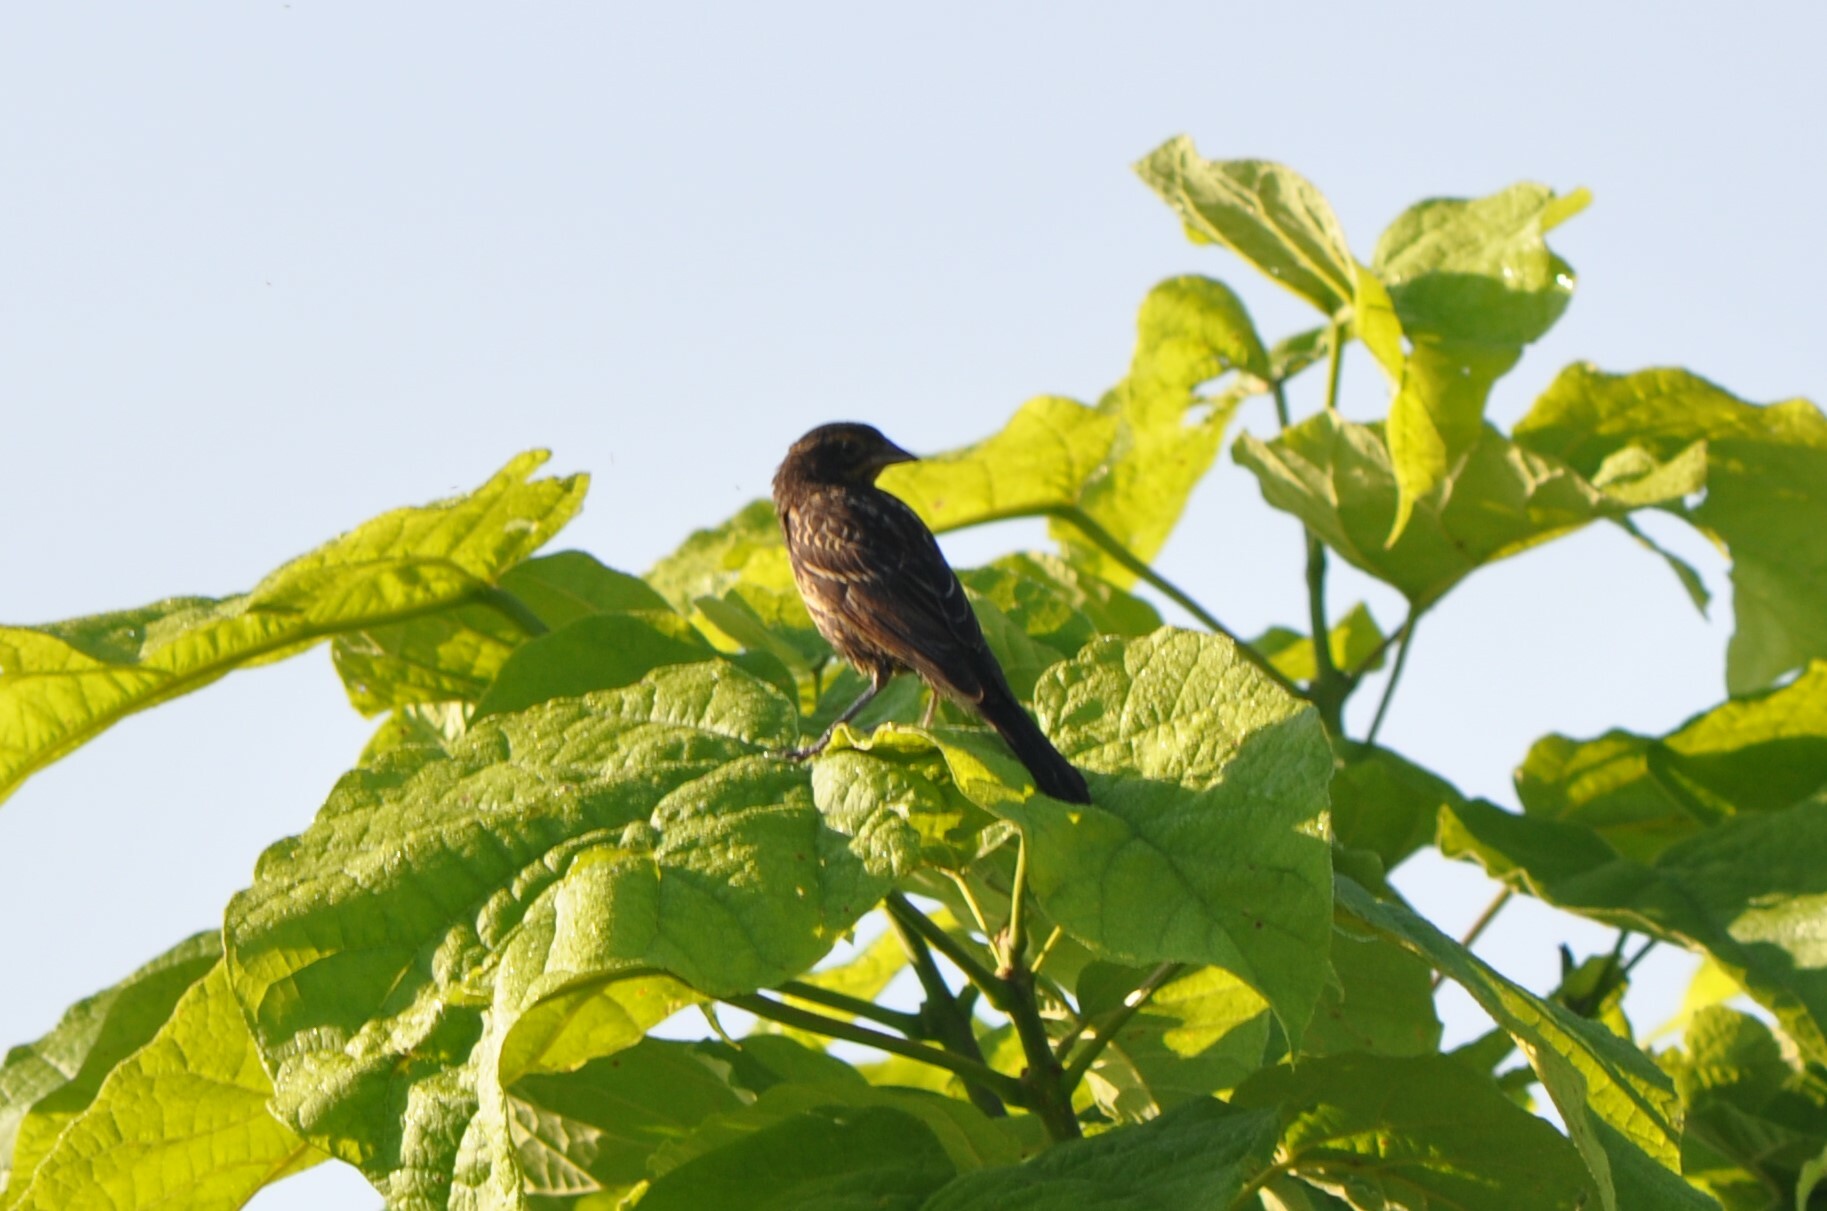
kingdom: Animalia
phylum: Chordata
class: Aves
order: Passeriformes
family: Icteridae
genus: Agelaius
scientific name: Agelaius phoeniceus
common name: Red-winged blackbird
